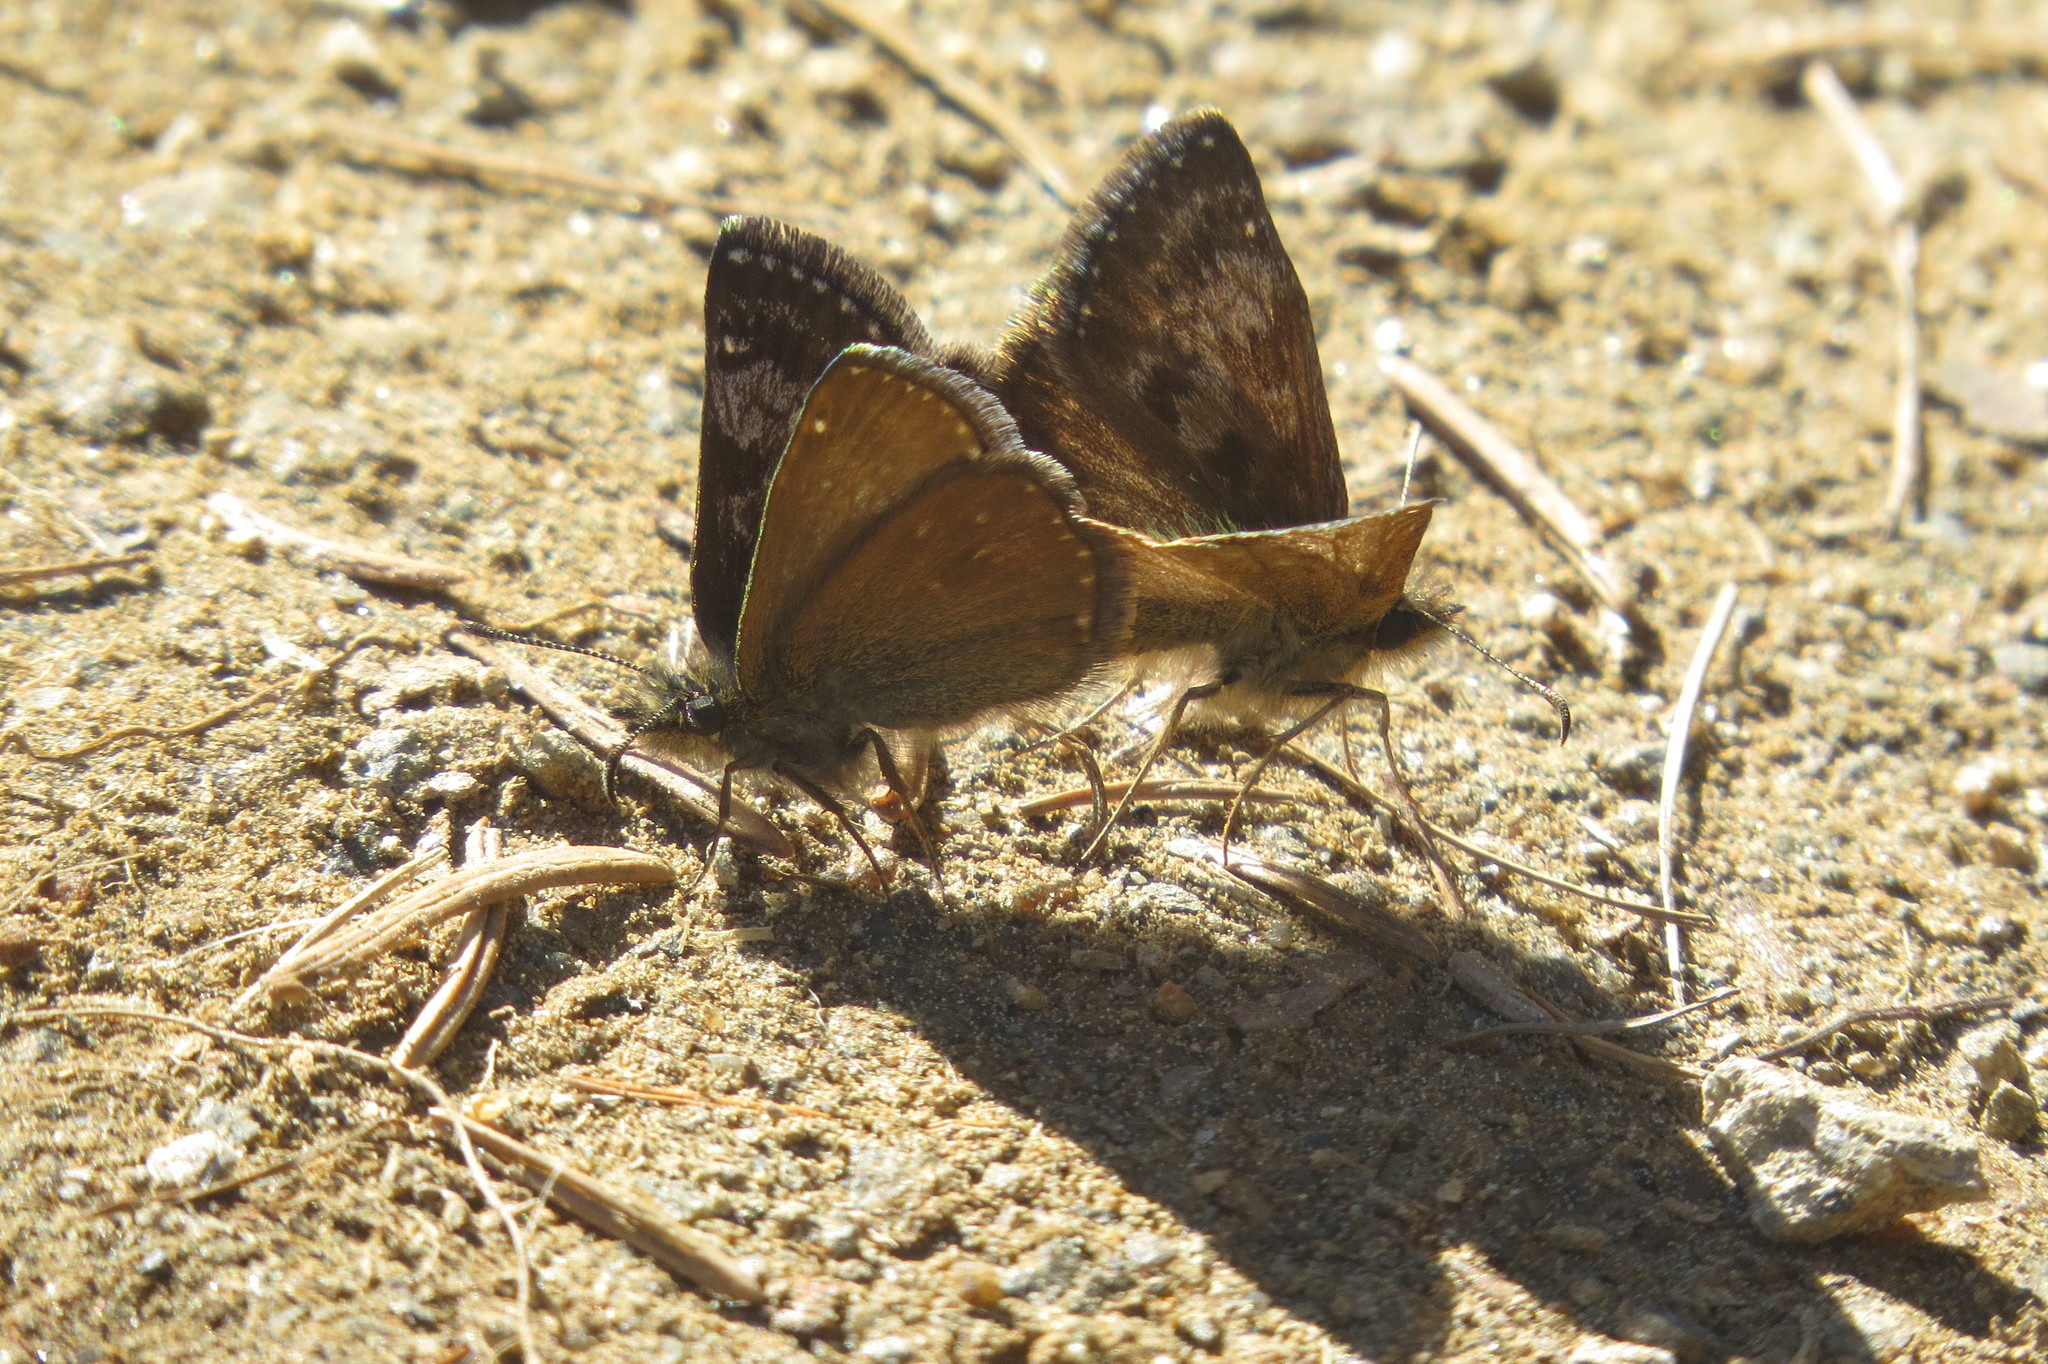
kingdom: Animalia
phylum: Arthropoda
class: Insecta
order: Lepidoptera
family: Hesperiidae
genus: Erynnis
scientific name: Erynnis tages
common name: Dingy skipper
